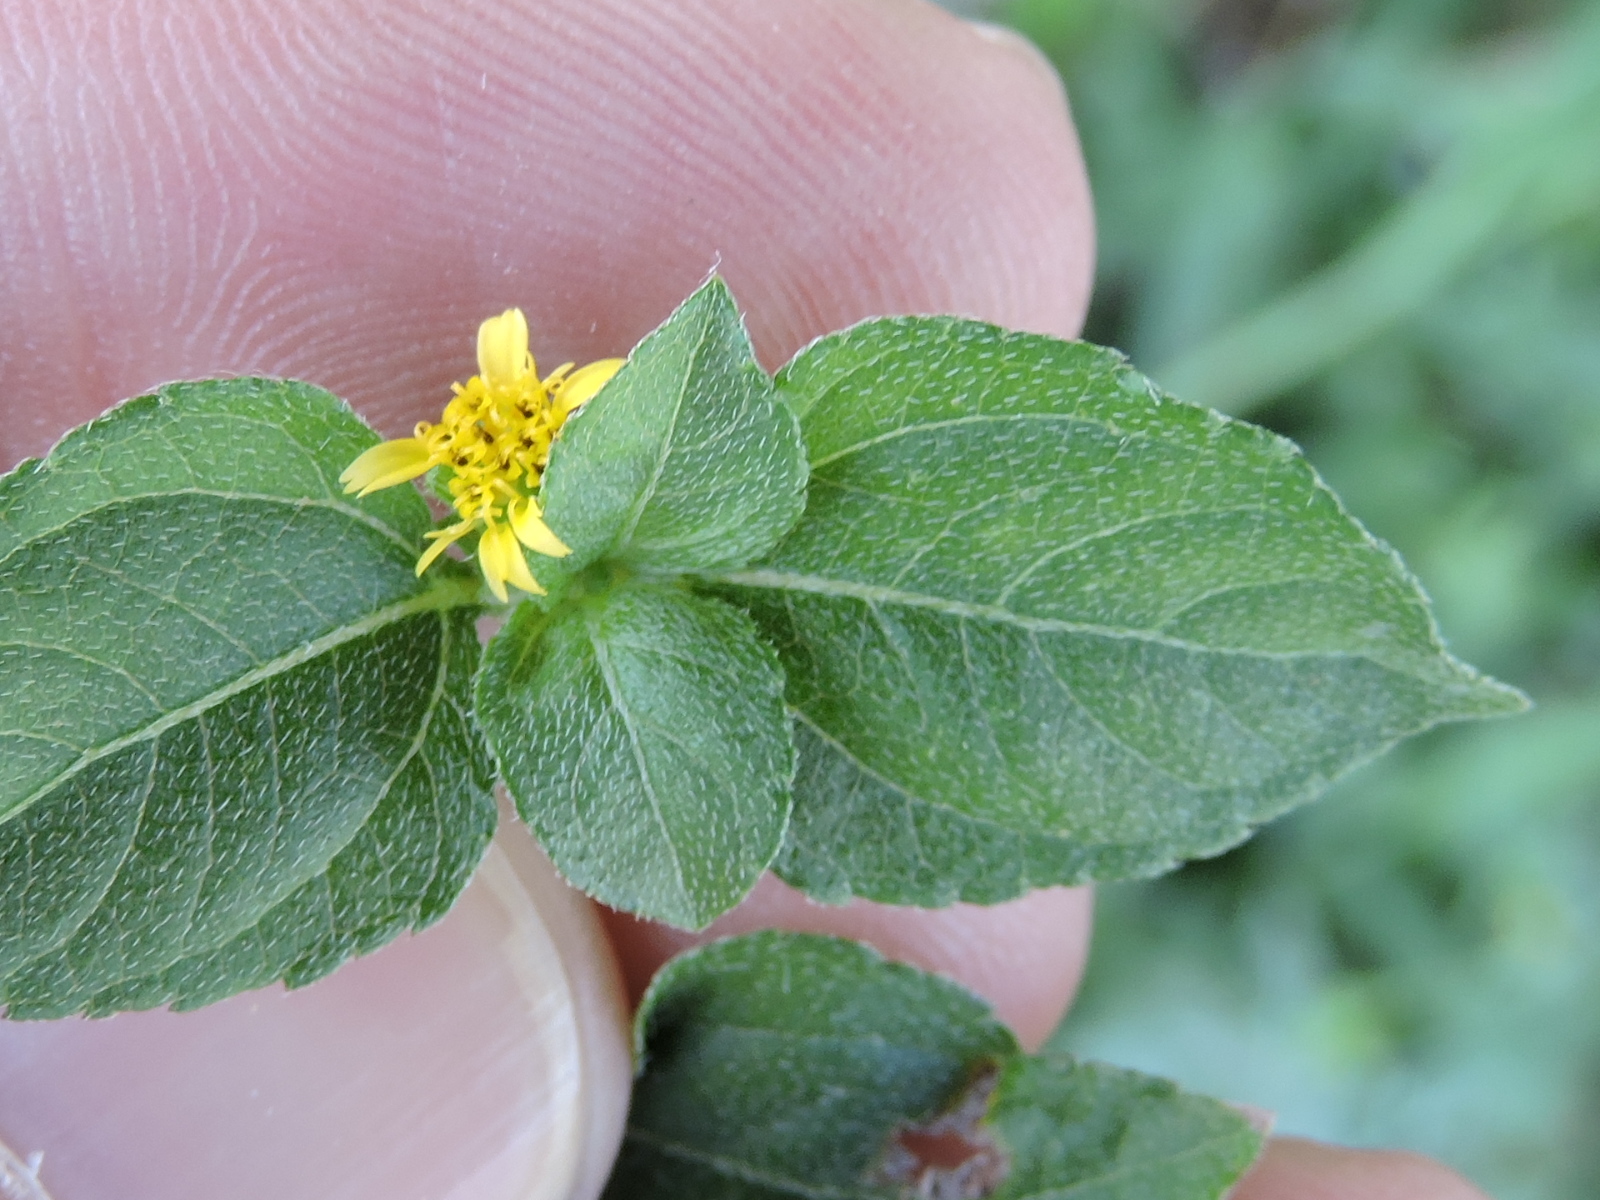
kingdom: Plantae
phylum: Tracheophyta
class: Magnoliopsida
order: Asterales
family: Asteraceae
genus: Calyptocarpus
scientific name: Calyptocarpus vialis
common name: Straggler daisy
